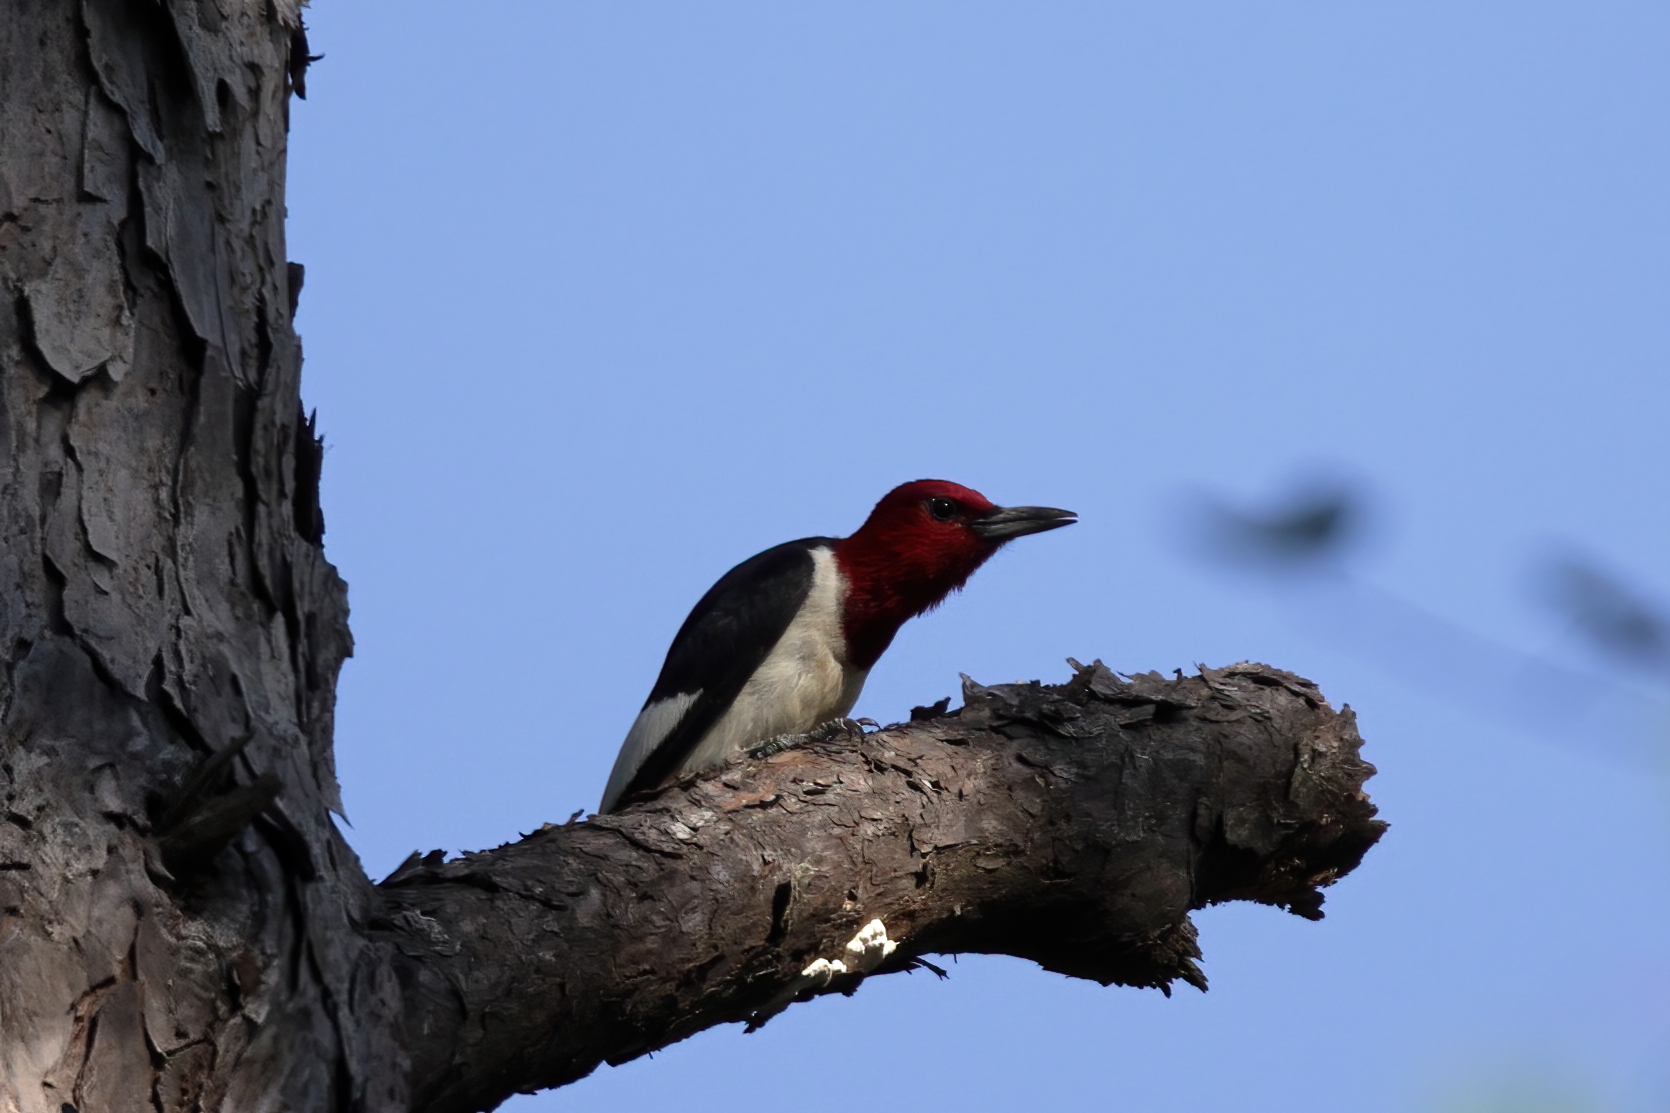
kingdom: Animalia
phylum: Chordata
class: Aves
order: Piciformes
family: Picidae
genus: Melanerpes
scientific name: Melanerpes erythrocephalus
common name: Red-headed woodpecker
